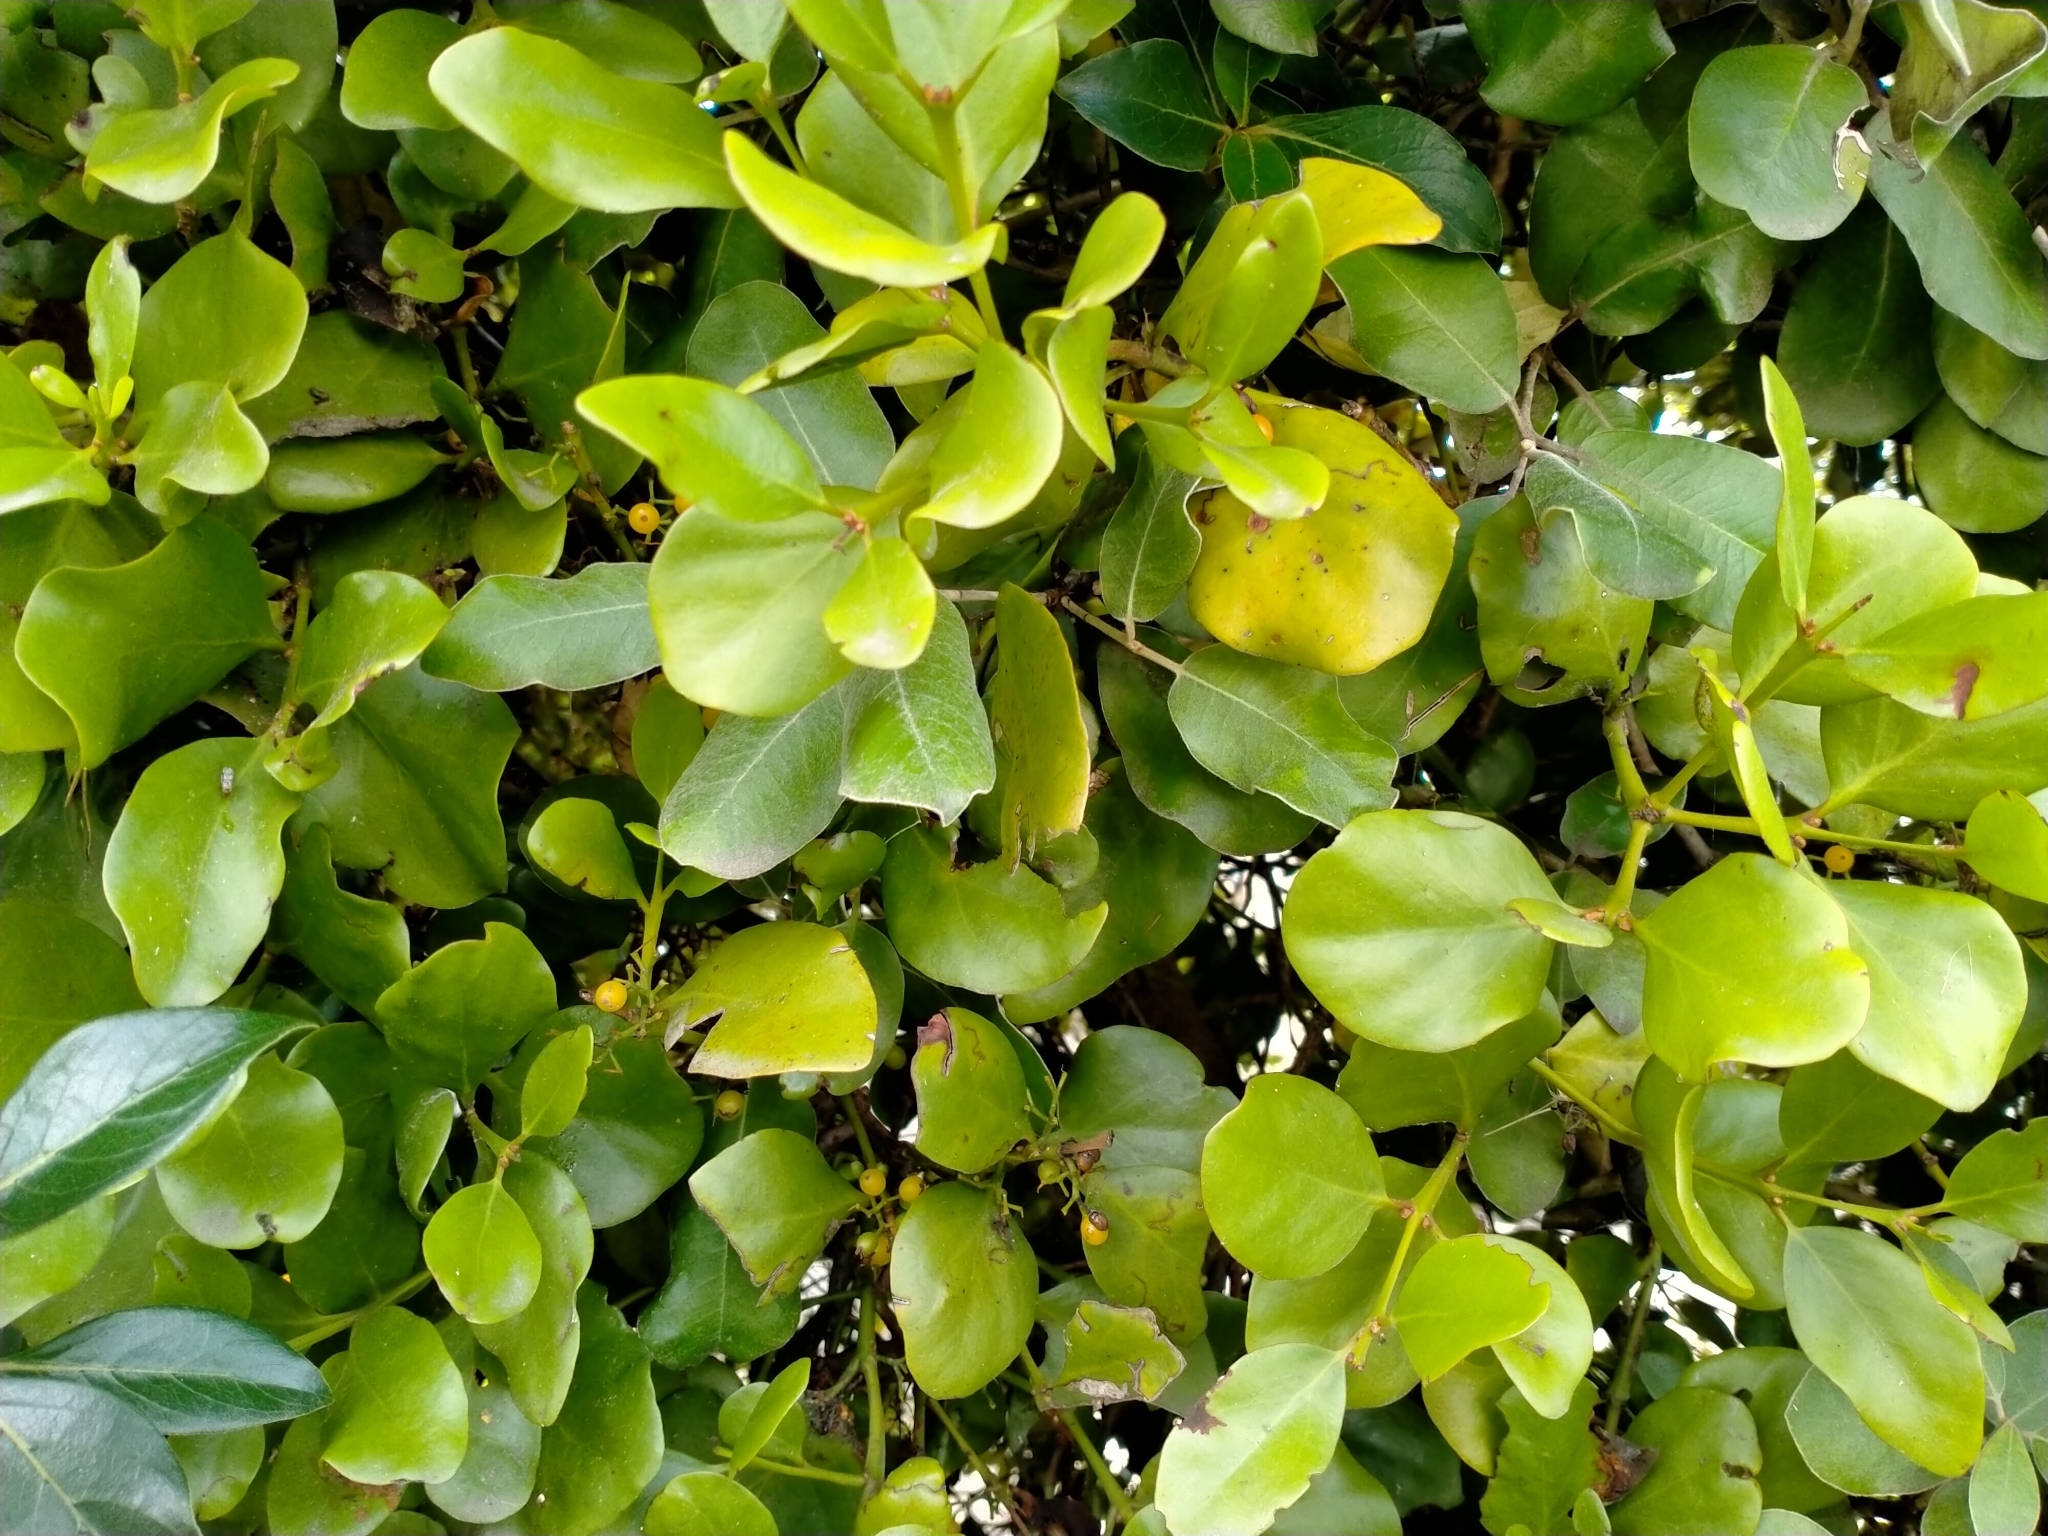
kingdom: Plantae
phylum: Tracheophyta
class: Magnoliopsida
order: Santalales
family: Loranthaceae
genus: Ileostylus
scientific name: Ileostylus micranthus
